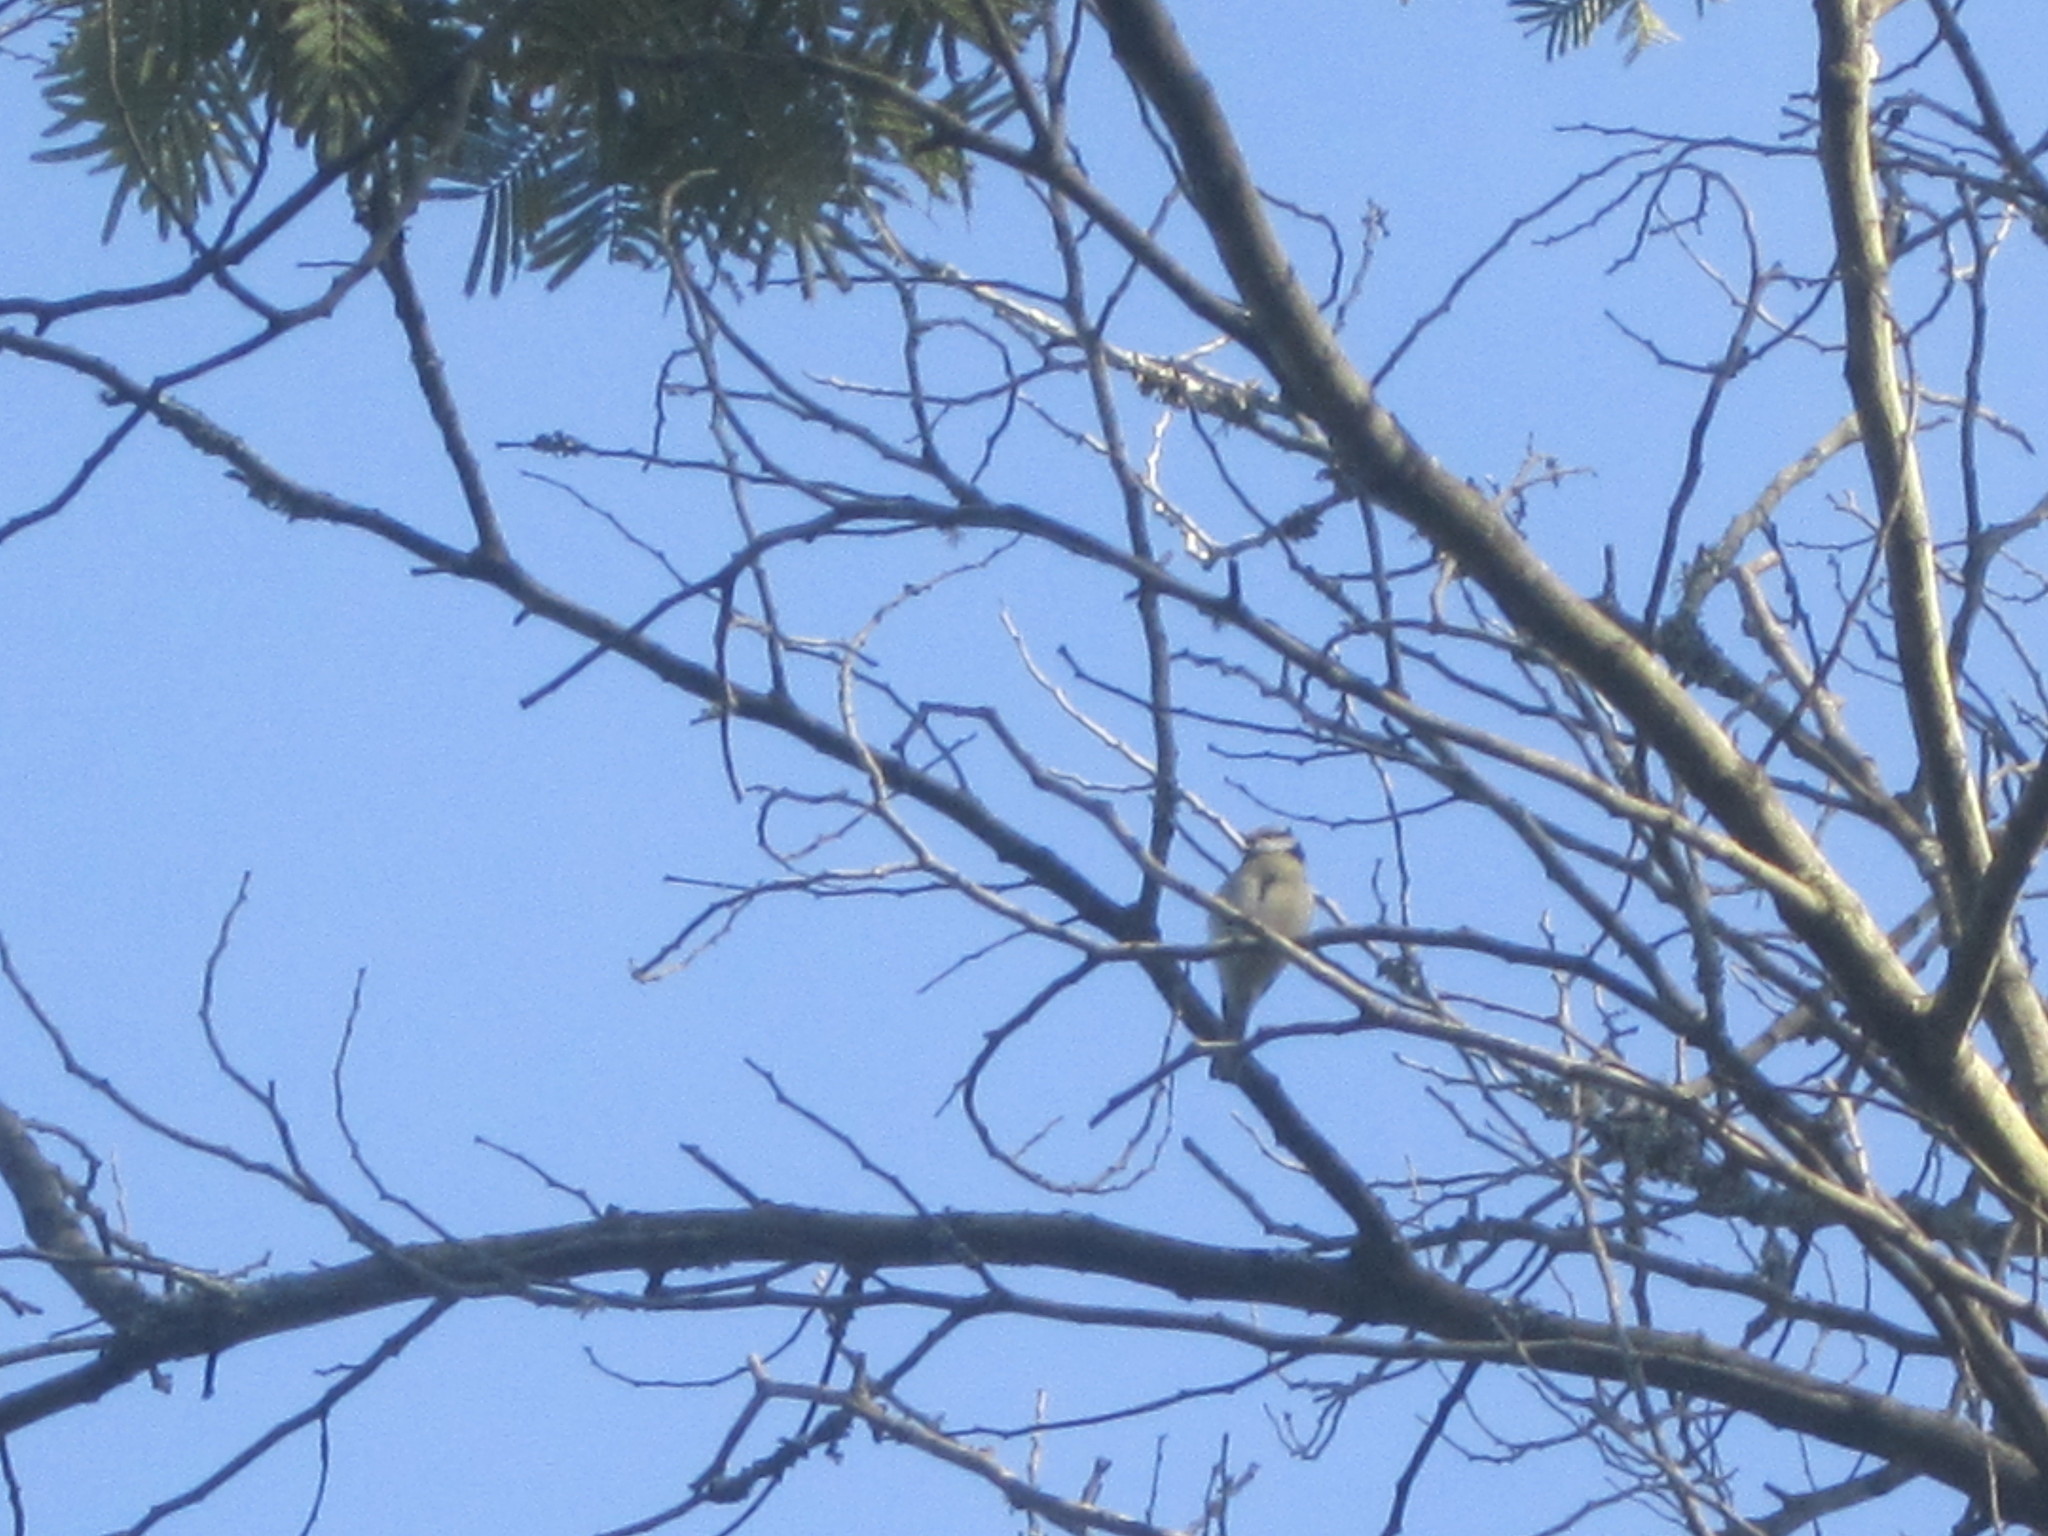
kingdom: Animalia
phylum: Chordata
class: Aves
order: Passeriformes
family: Paridae
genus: Cyanistes
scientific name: Cyanistes caeruleus
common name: Eurasian blue tit
